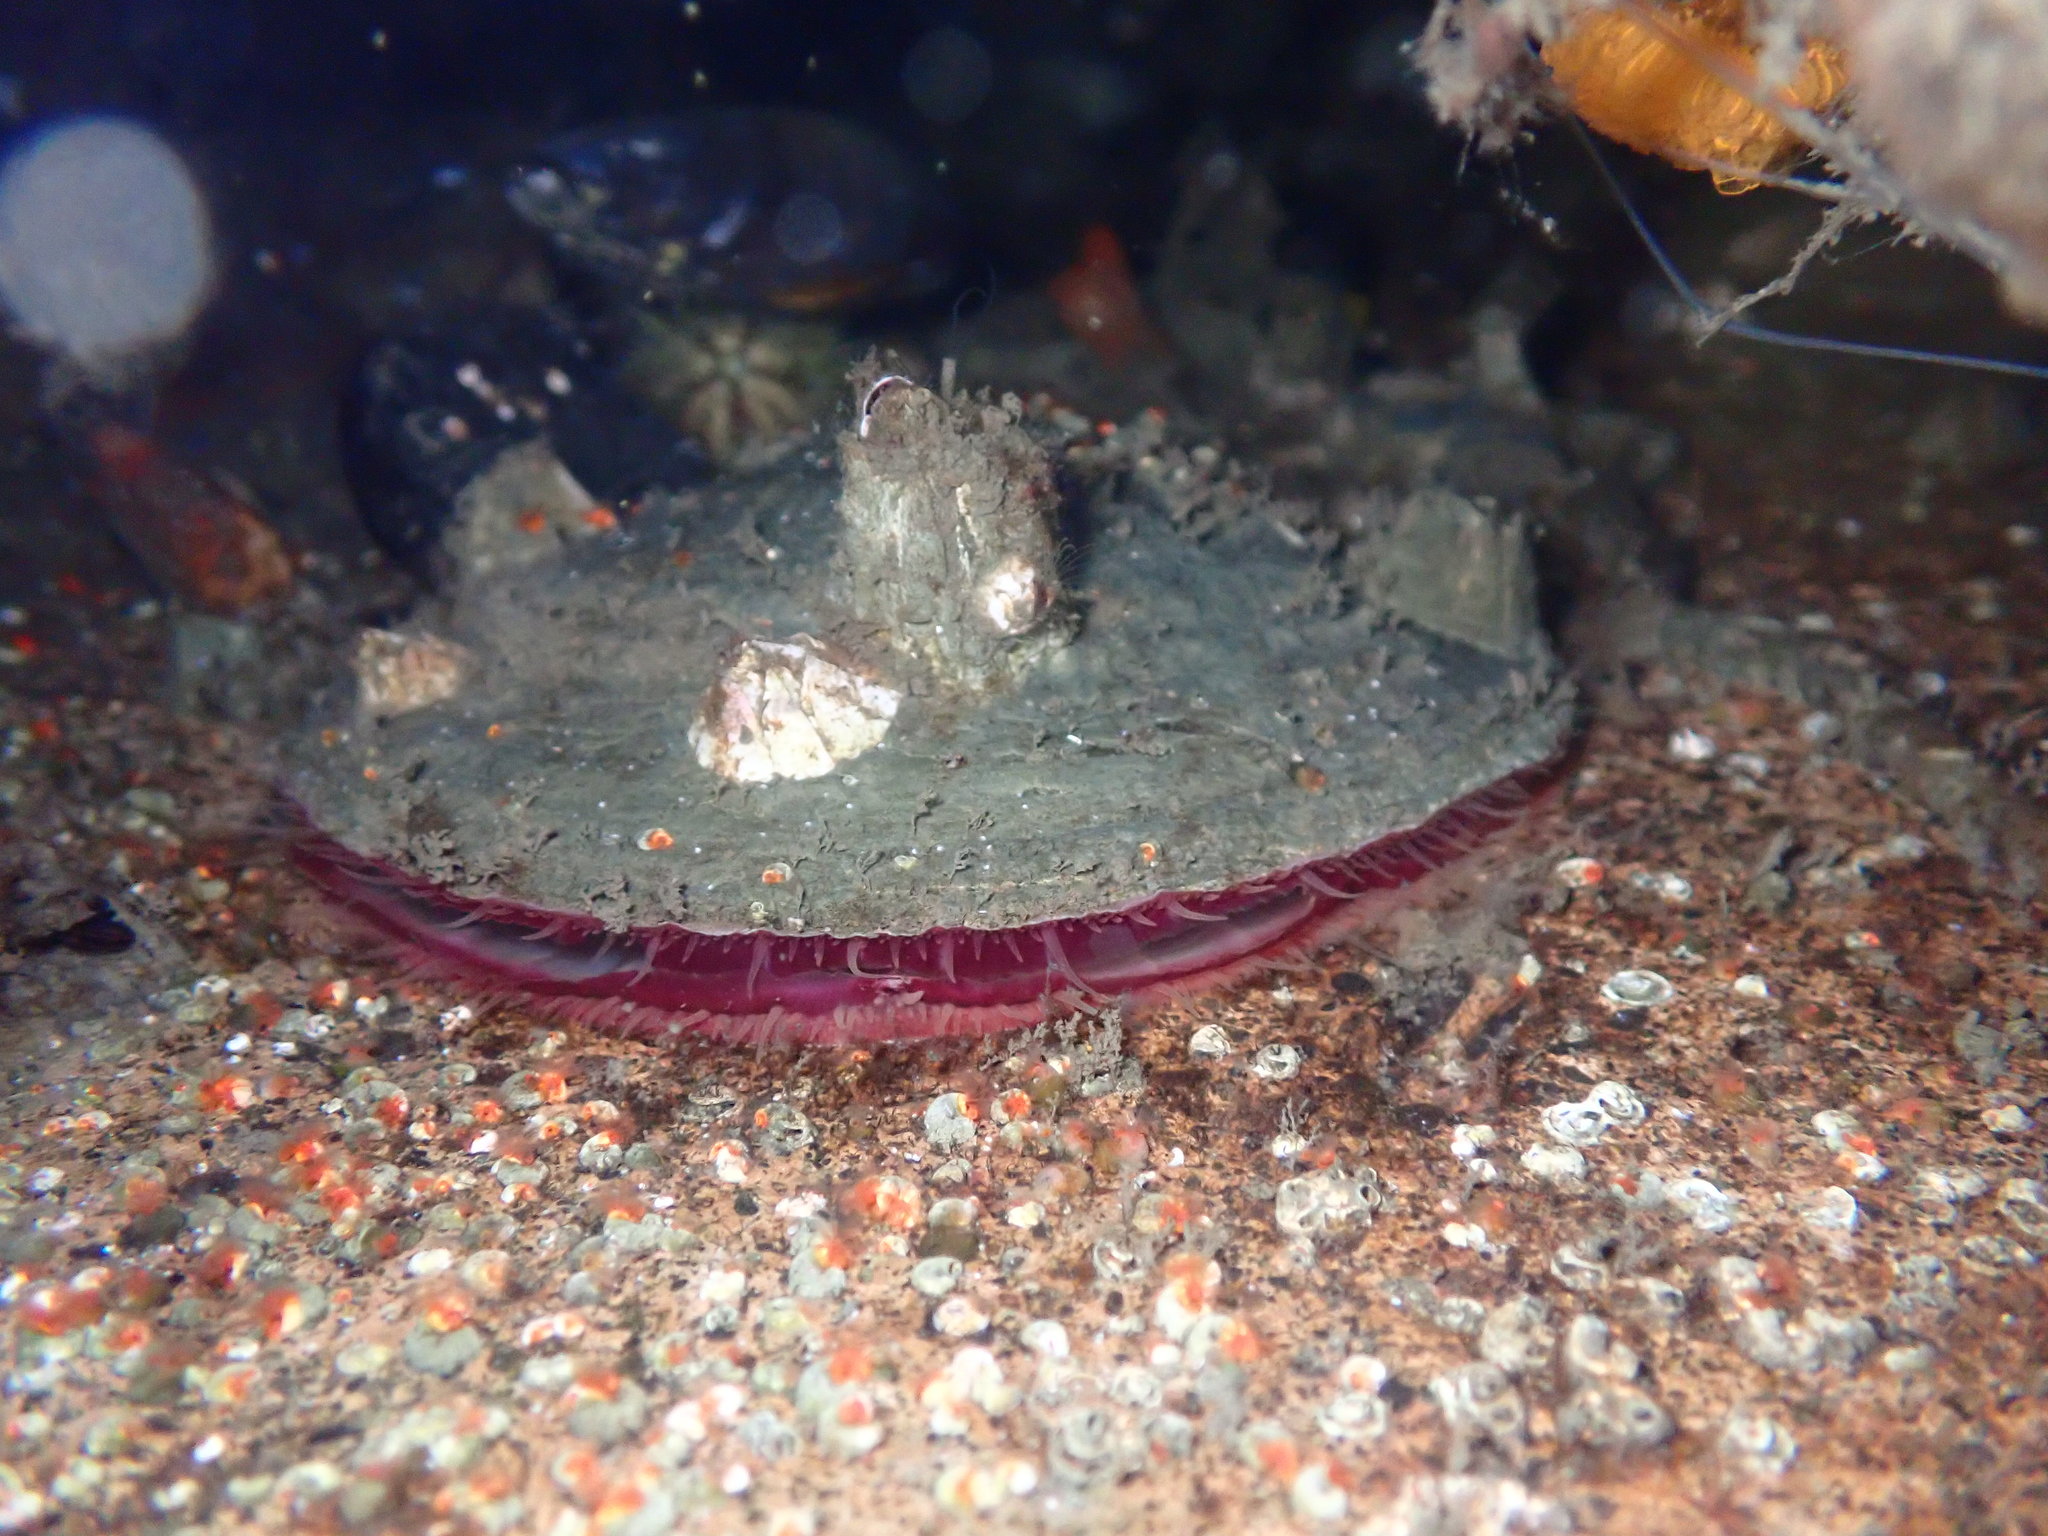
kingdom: Animalia
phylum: Mollusca
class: Bivalvia
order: Pectinida
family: Anomiidae
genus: Pododesmus
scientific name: Pododesmus macrochisma
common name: Alaska jingle
